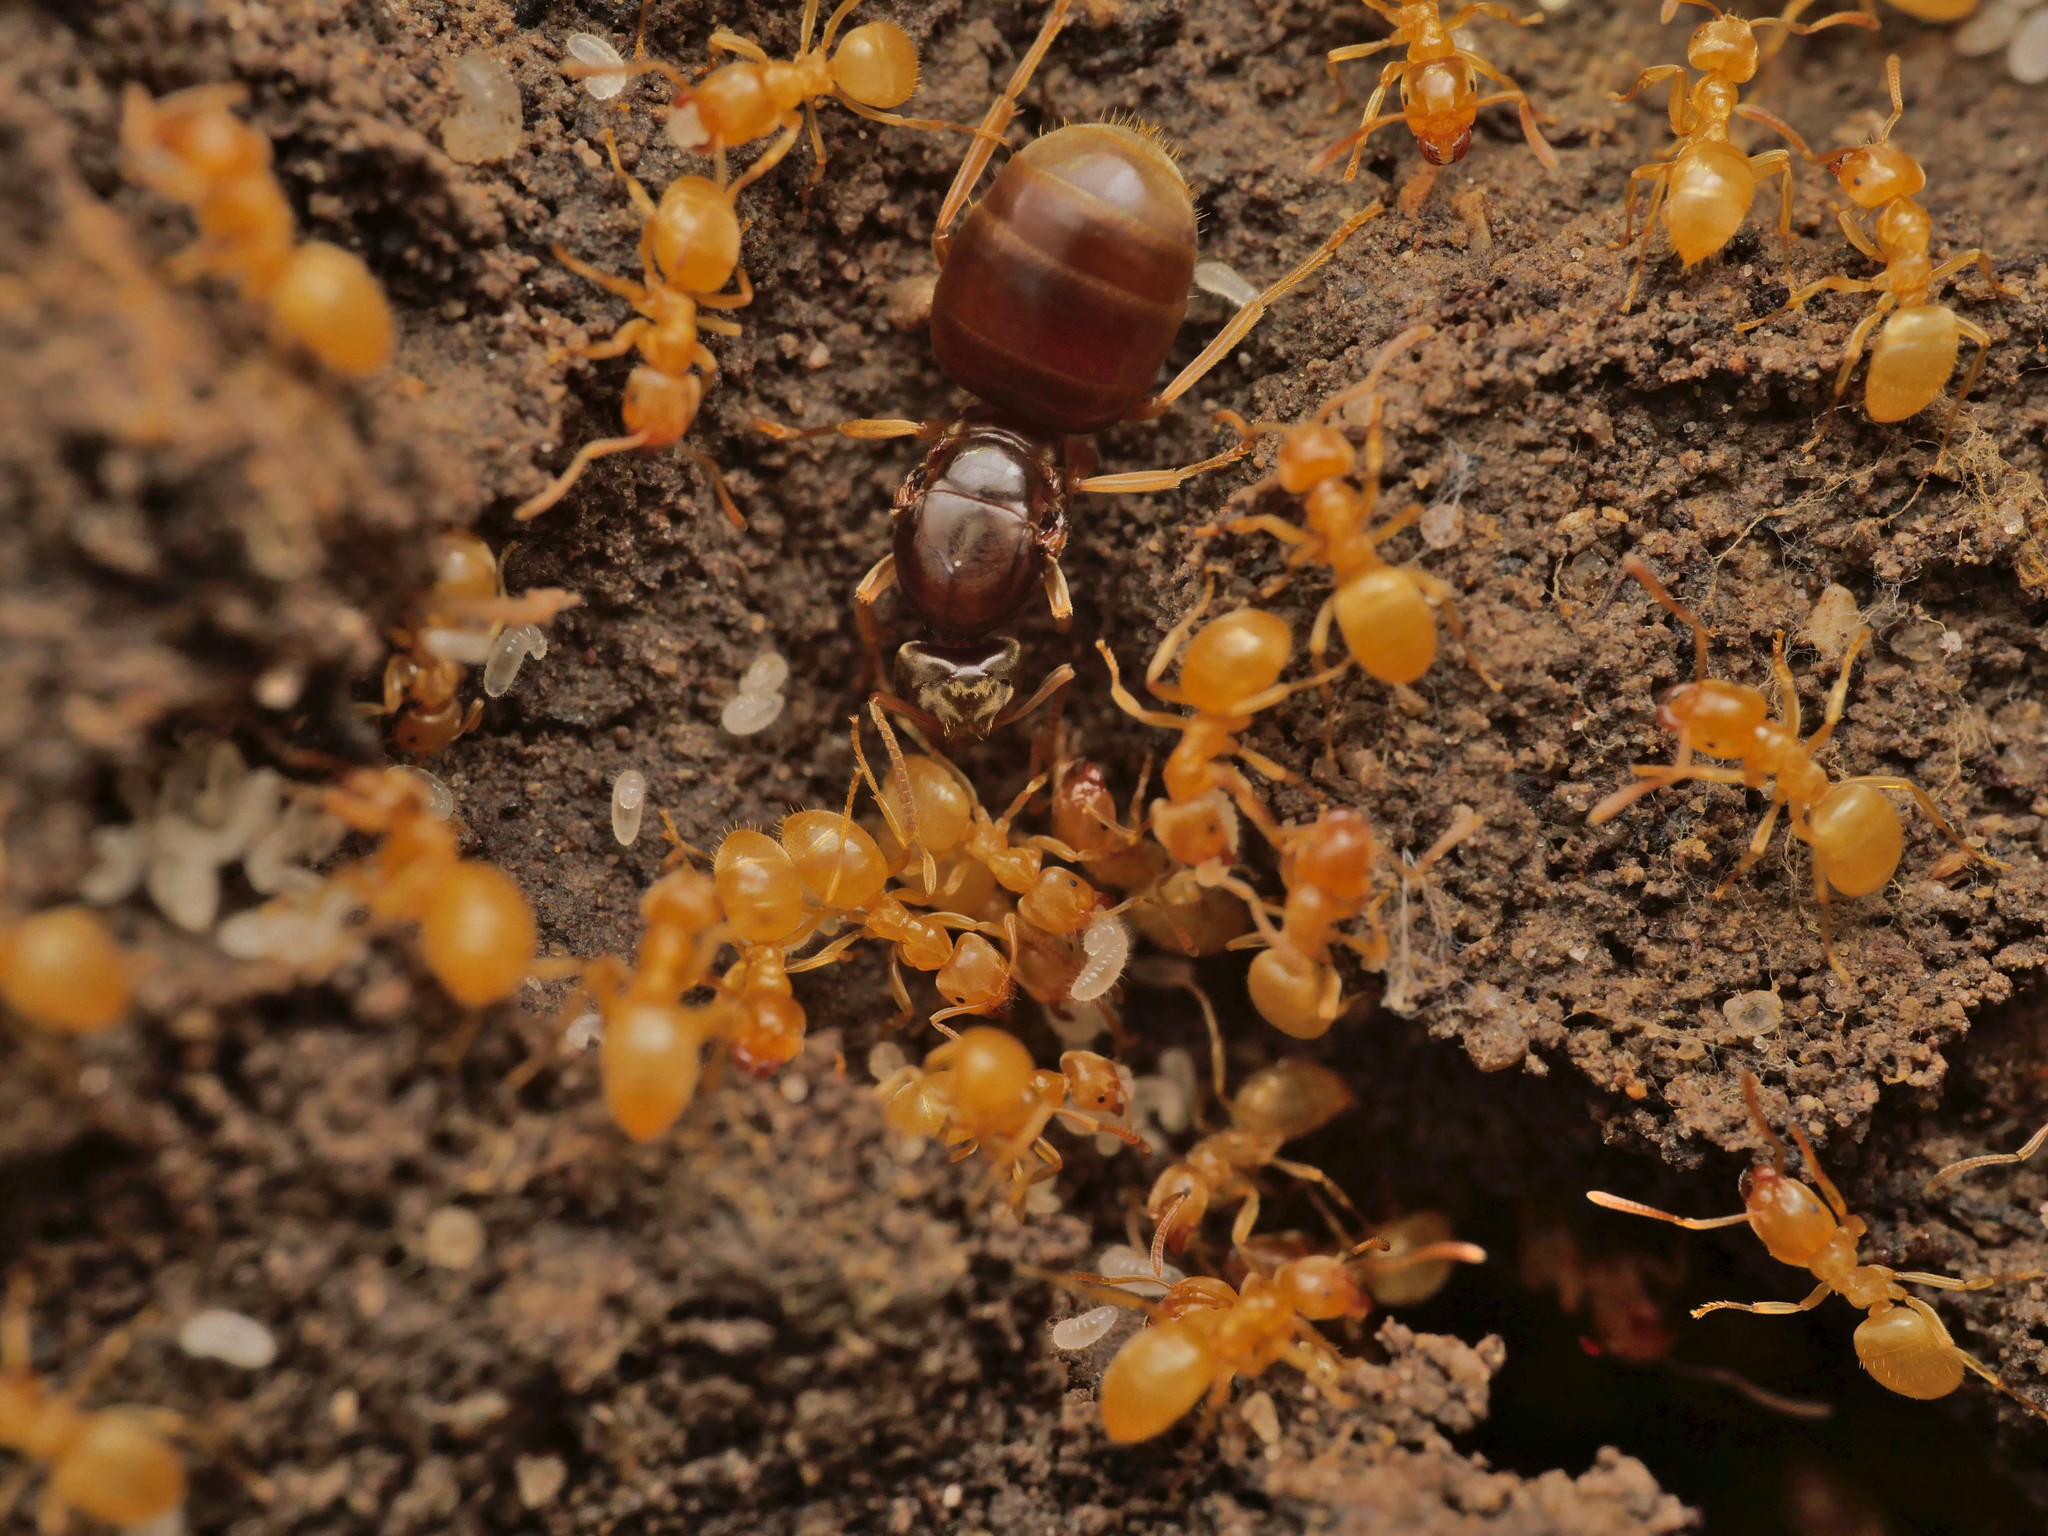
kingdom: Animalia
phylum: Arthropoda
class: Insecta
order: Hymenoptera
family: Formicidae
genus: Lasius
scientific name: Lasius flavus
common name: Blond field ant
